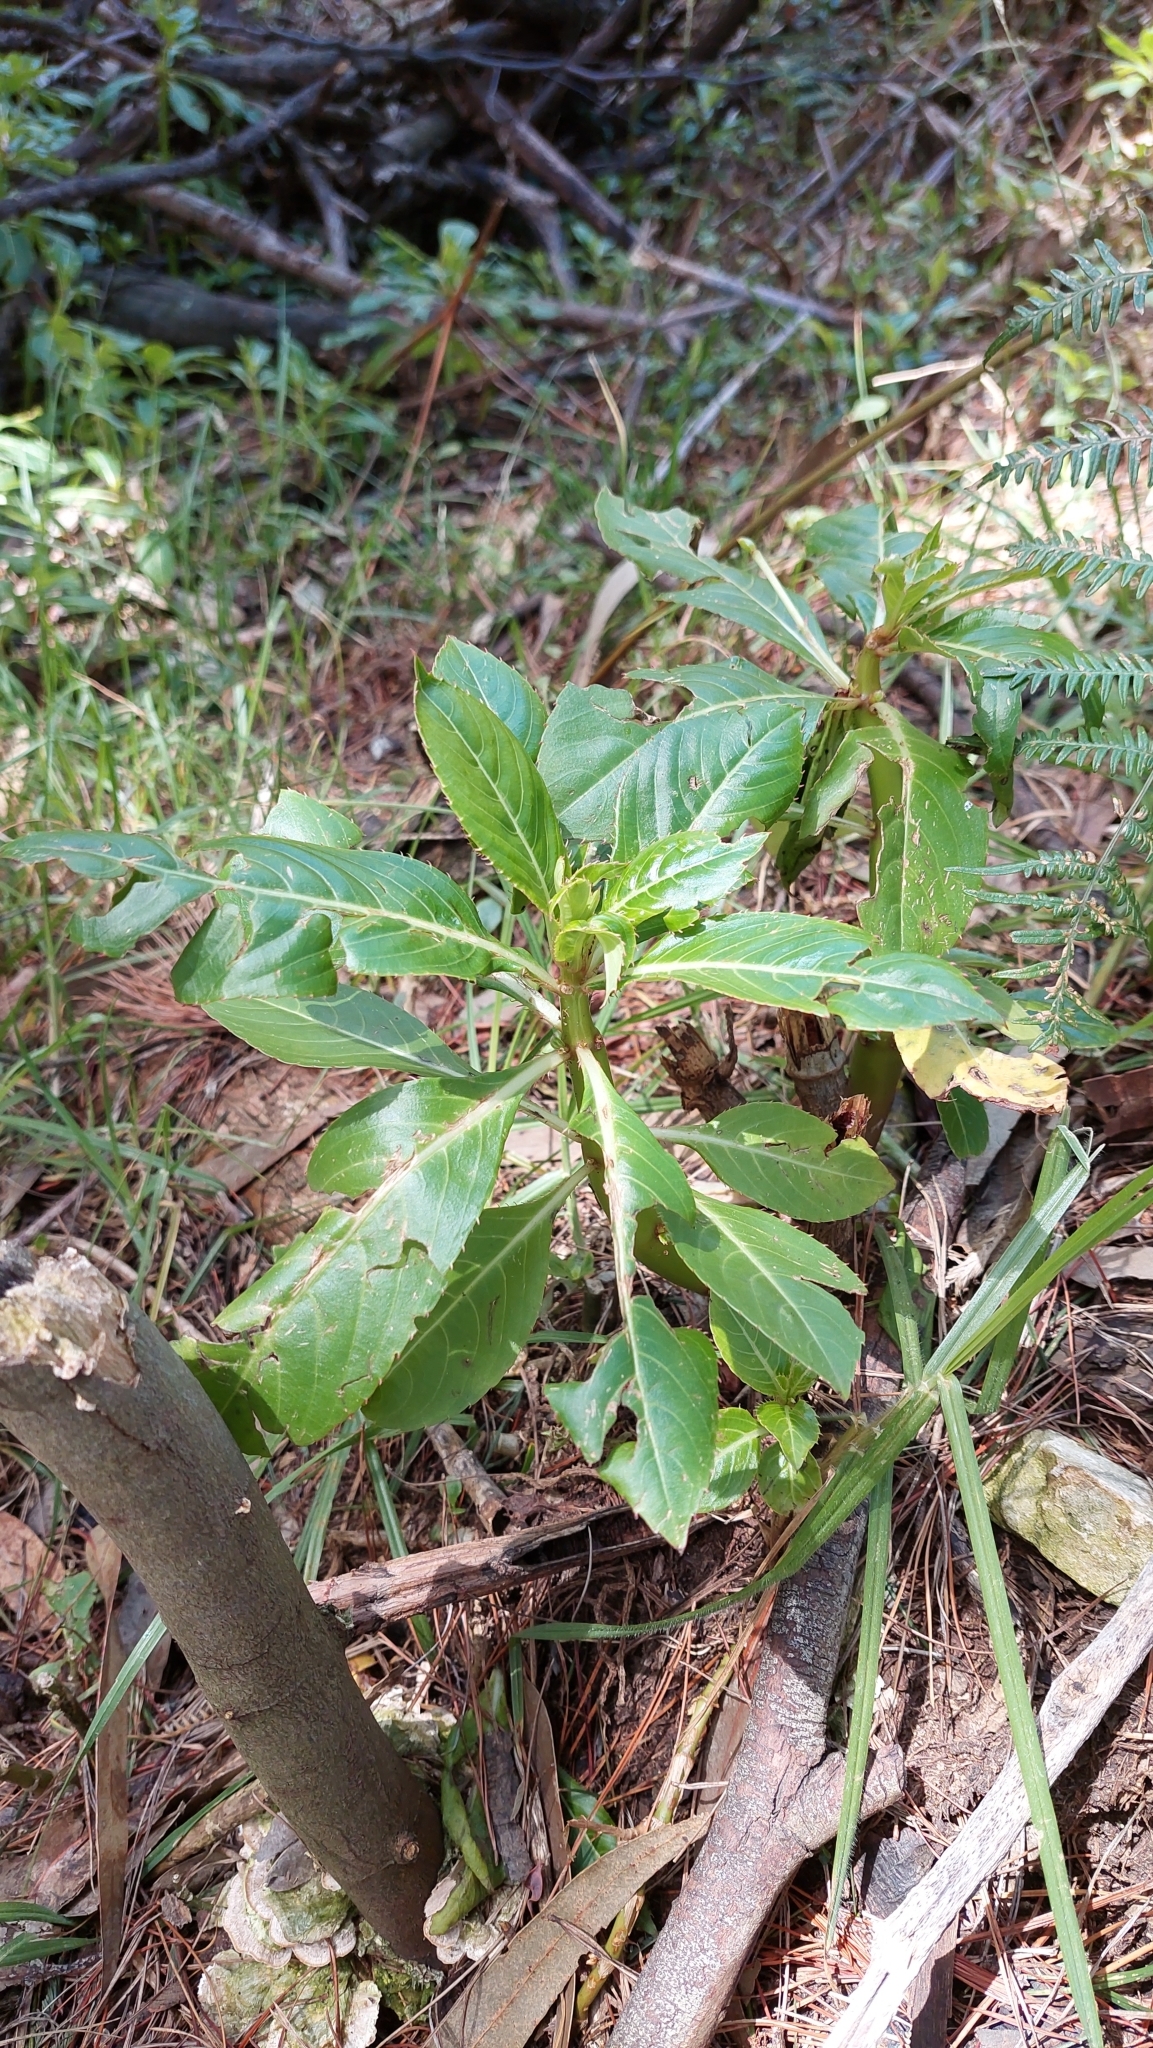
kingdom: Plantae
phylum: Tracheophyta
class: Magnoliopsida
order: Ericales
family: Balsaminaceae
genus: Impatiens
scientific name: Impatiens sodenii
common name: Oliver's touch-me-not
